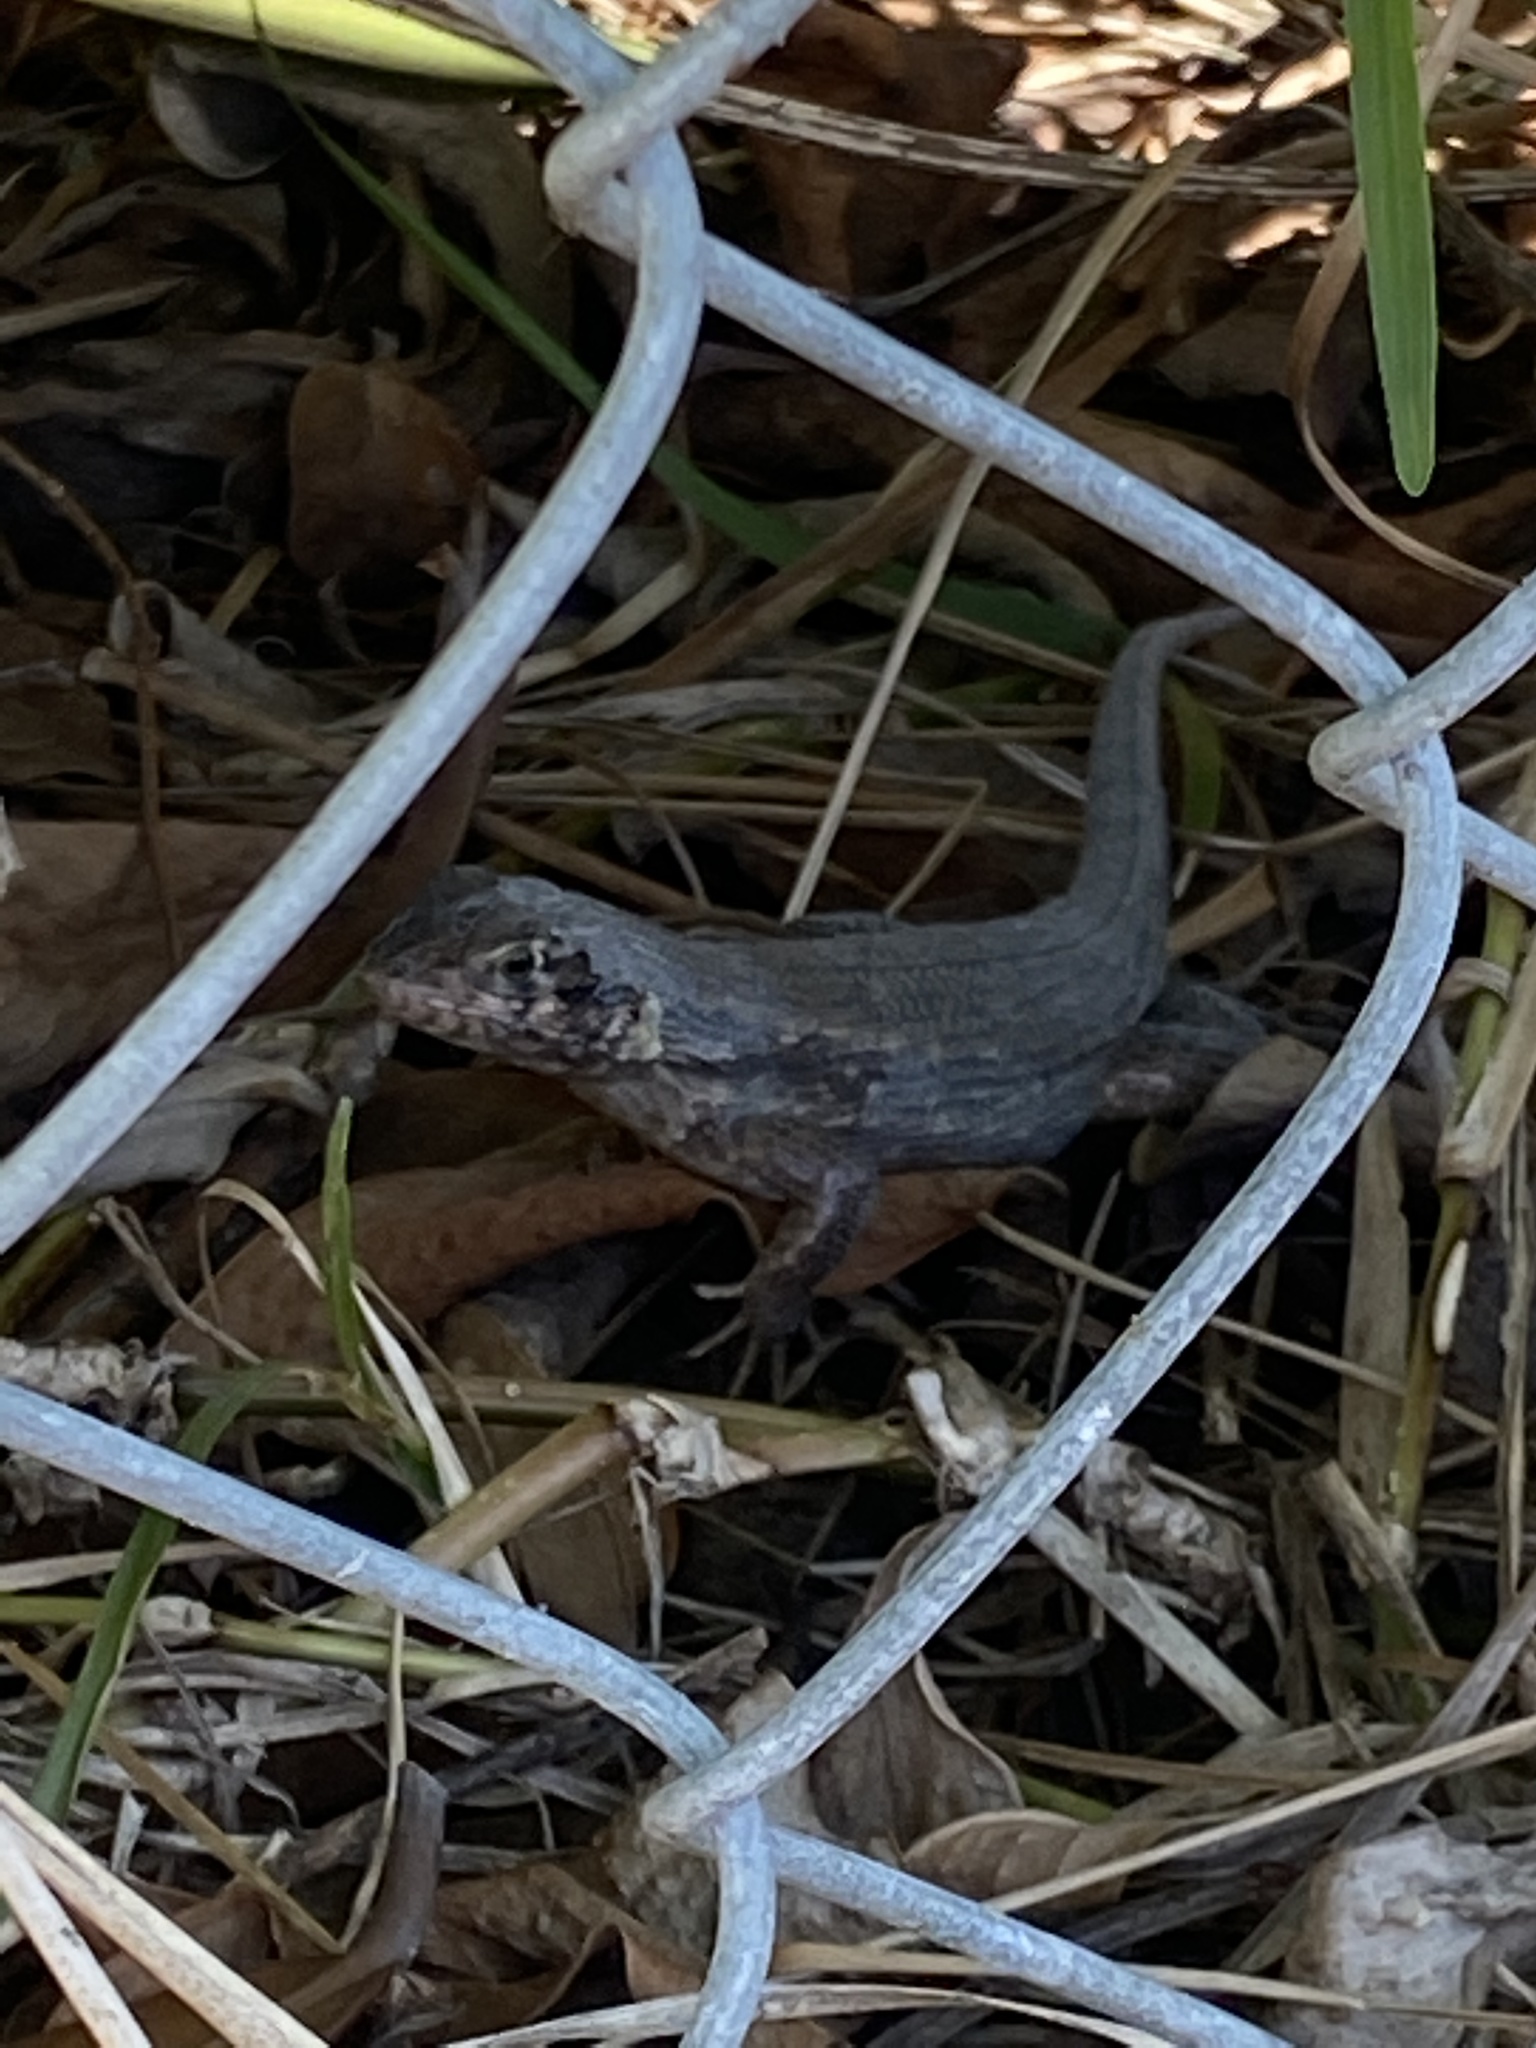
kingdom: Animalia
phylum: Chordata
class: Squamata
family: Leiocephalidae
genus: Leiocephalus
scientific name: Leiocephalus carinatus
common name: Northern curly-tailed lizard
